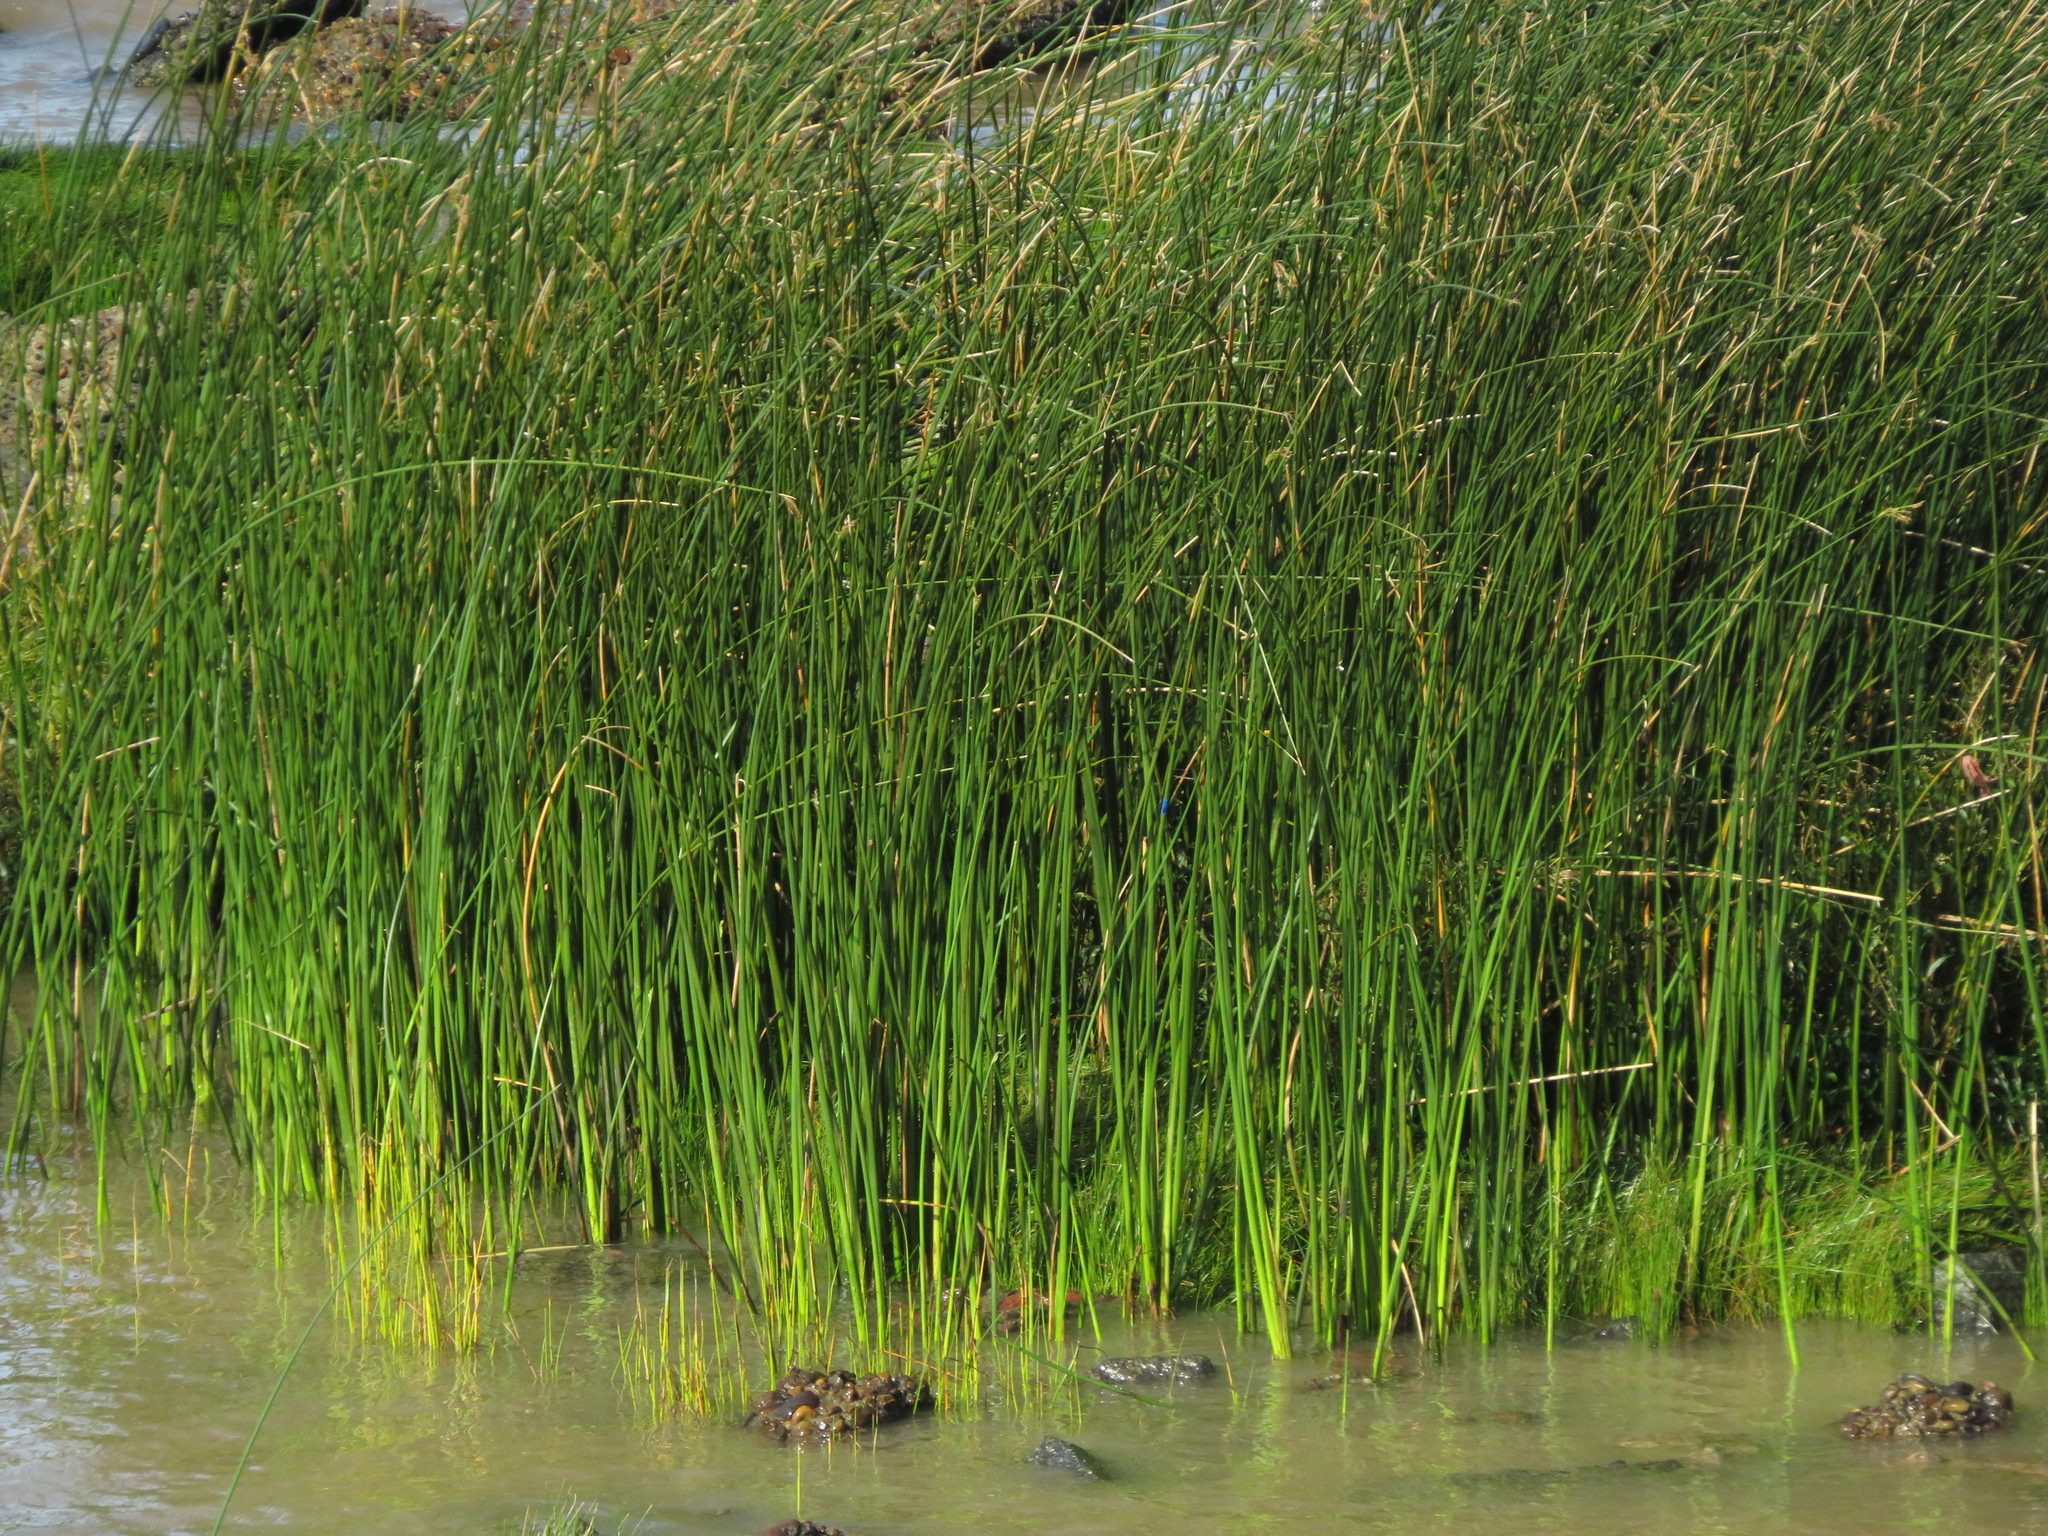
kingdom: Plantae
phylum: Tracheophyta
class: Liliopsida
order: Poales
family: Cyperaceae
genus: Schoenoplectus
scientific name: Schoenoplectus californicus
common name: California bulrush
